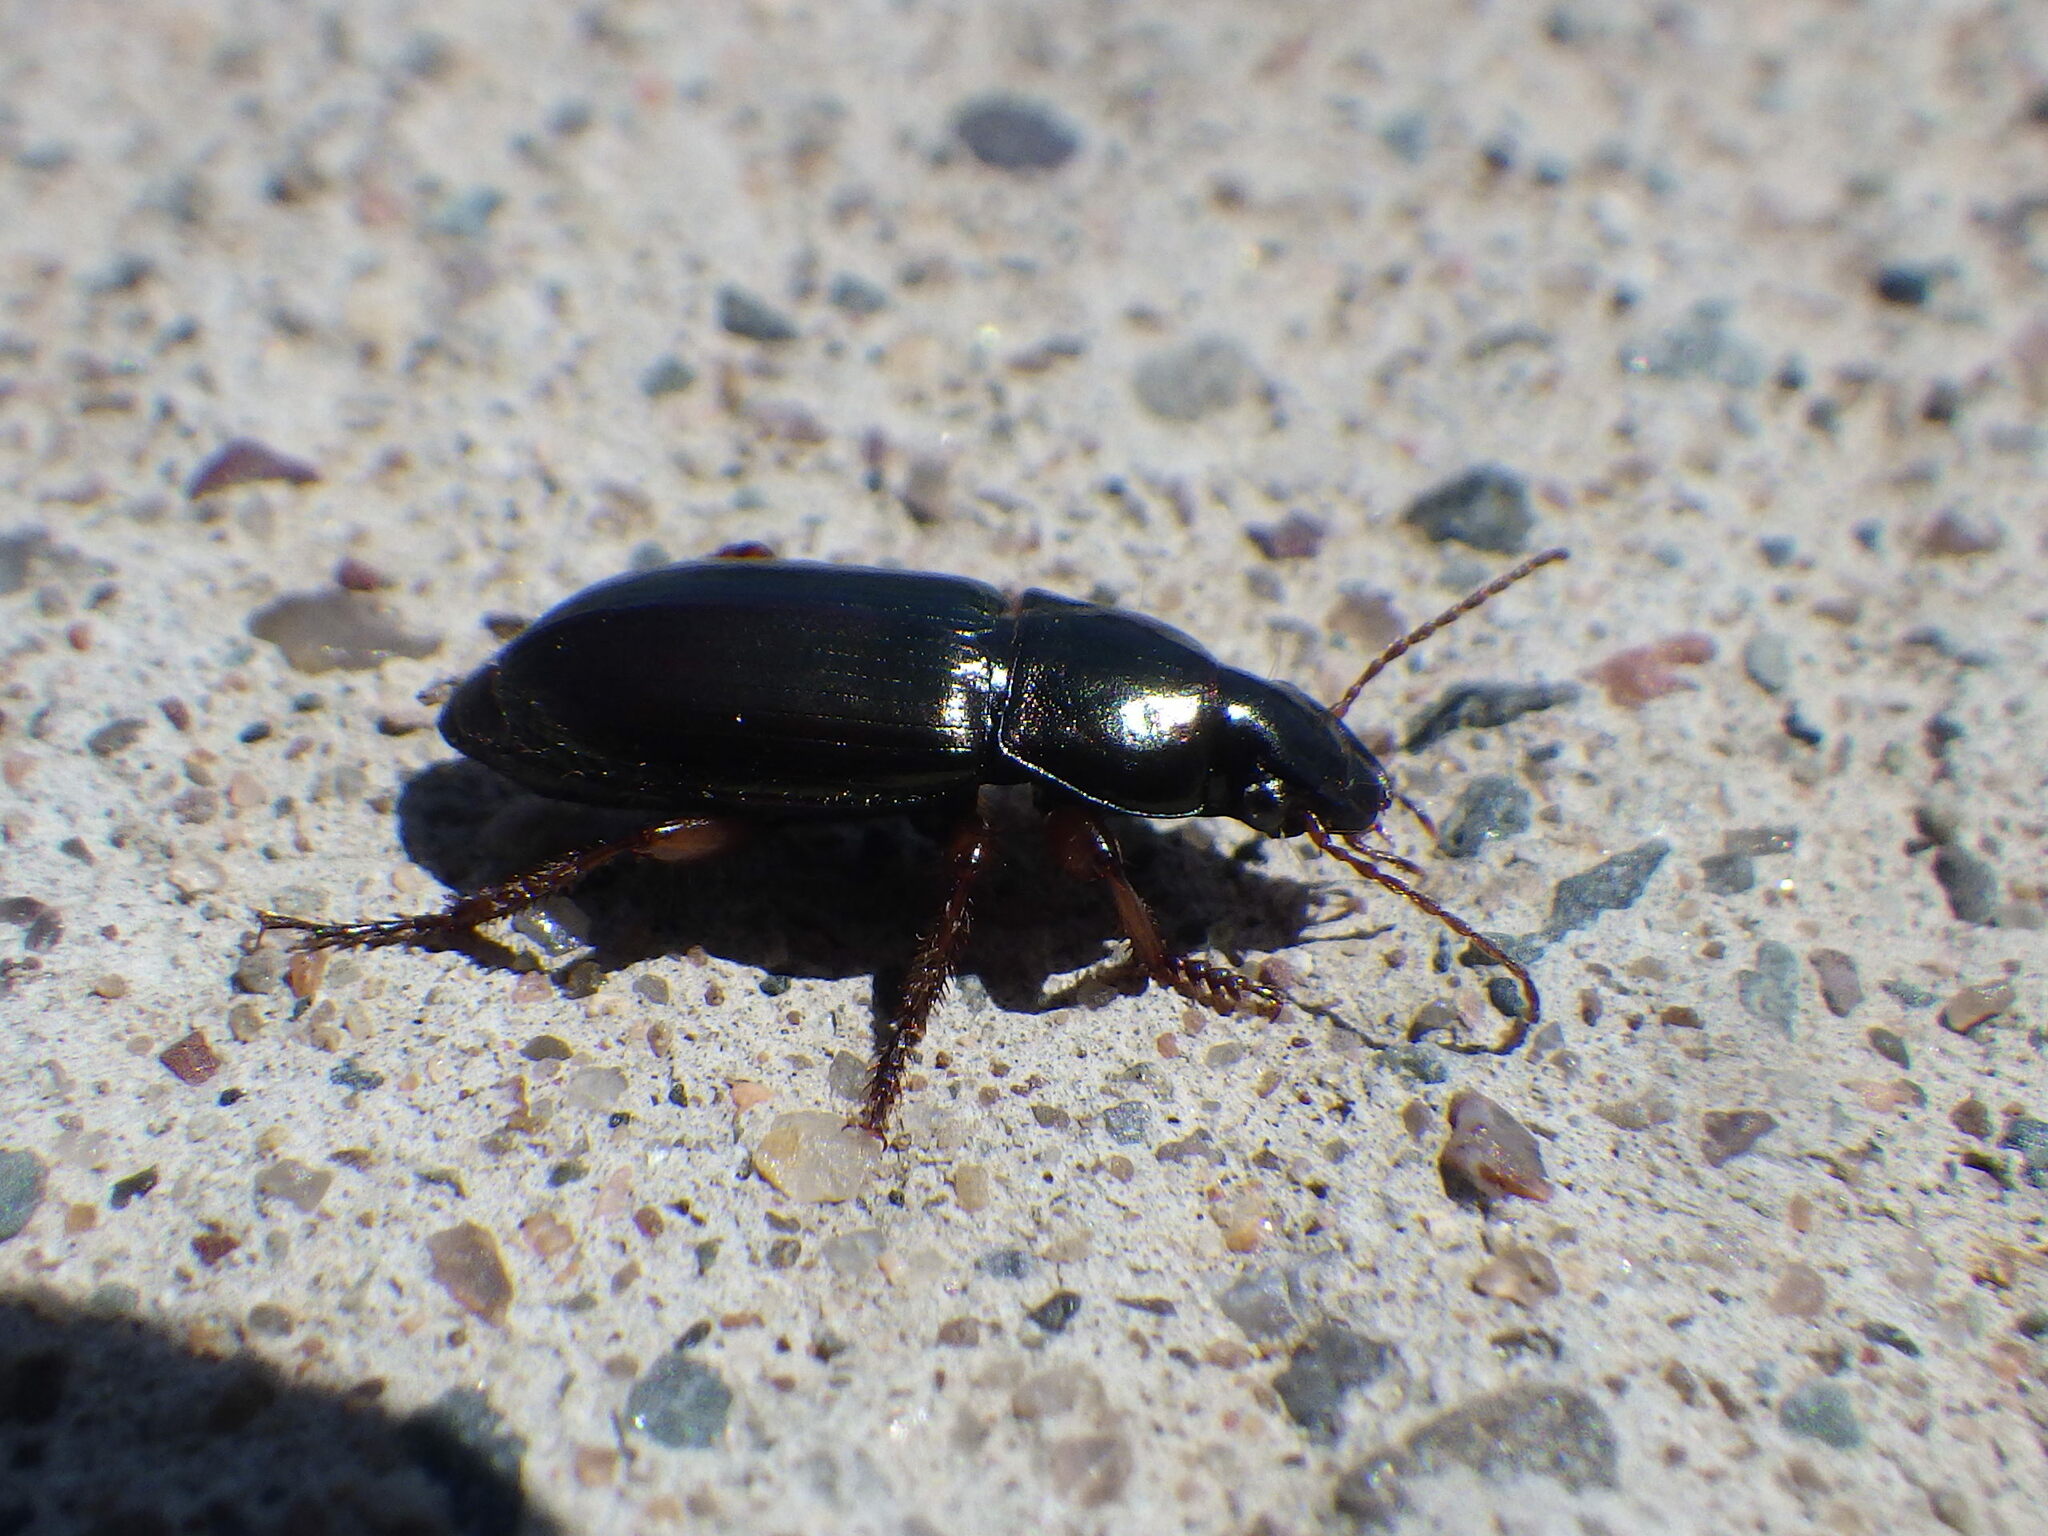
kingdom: Animalia
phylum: Arthropoda
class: Insecta
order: Coleoptera
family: Carabidae
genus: Harpalus
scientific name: Harpalus affinis
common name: Polychrome harp ground beetle
